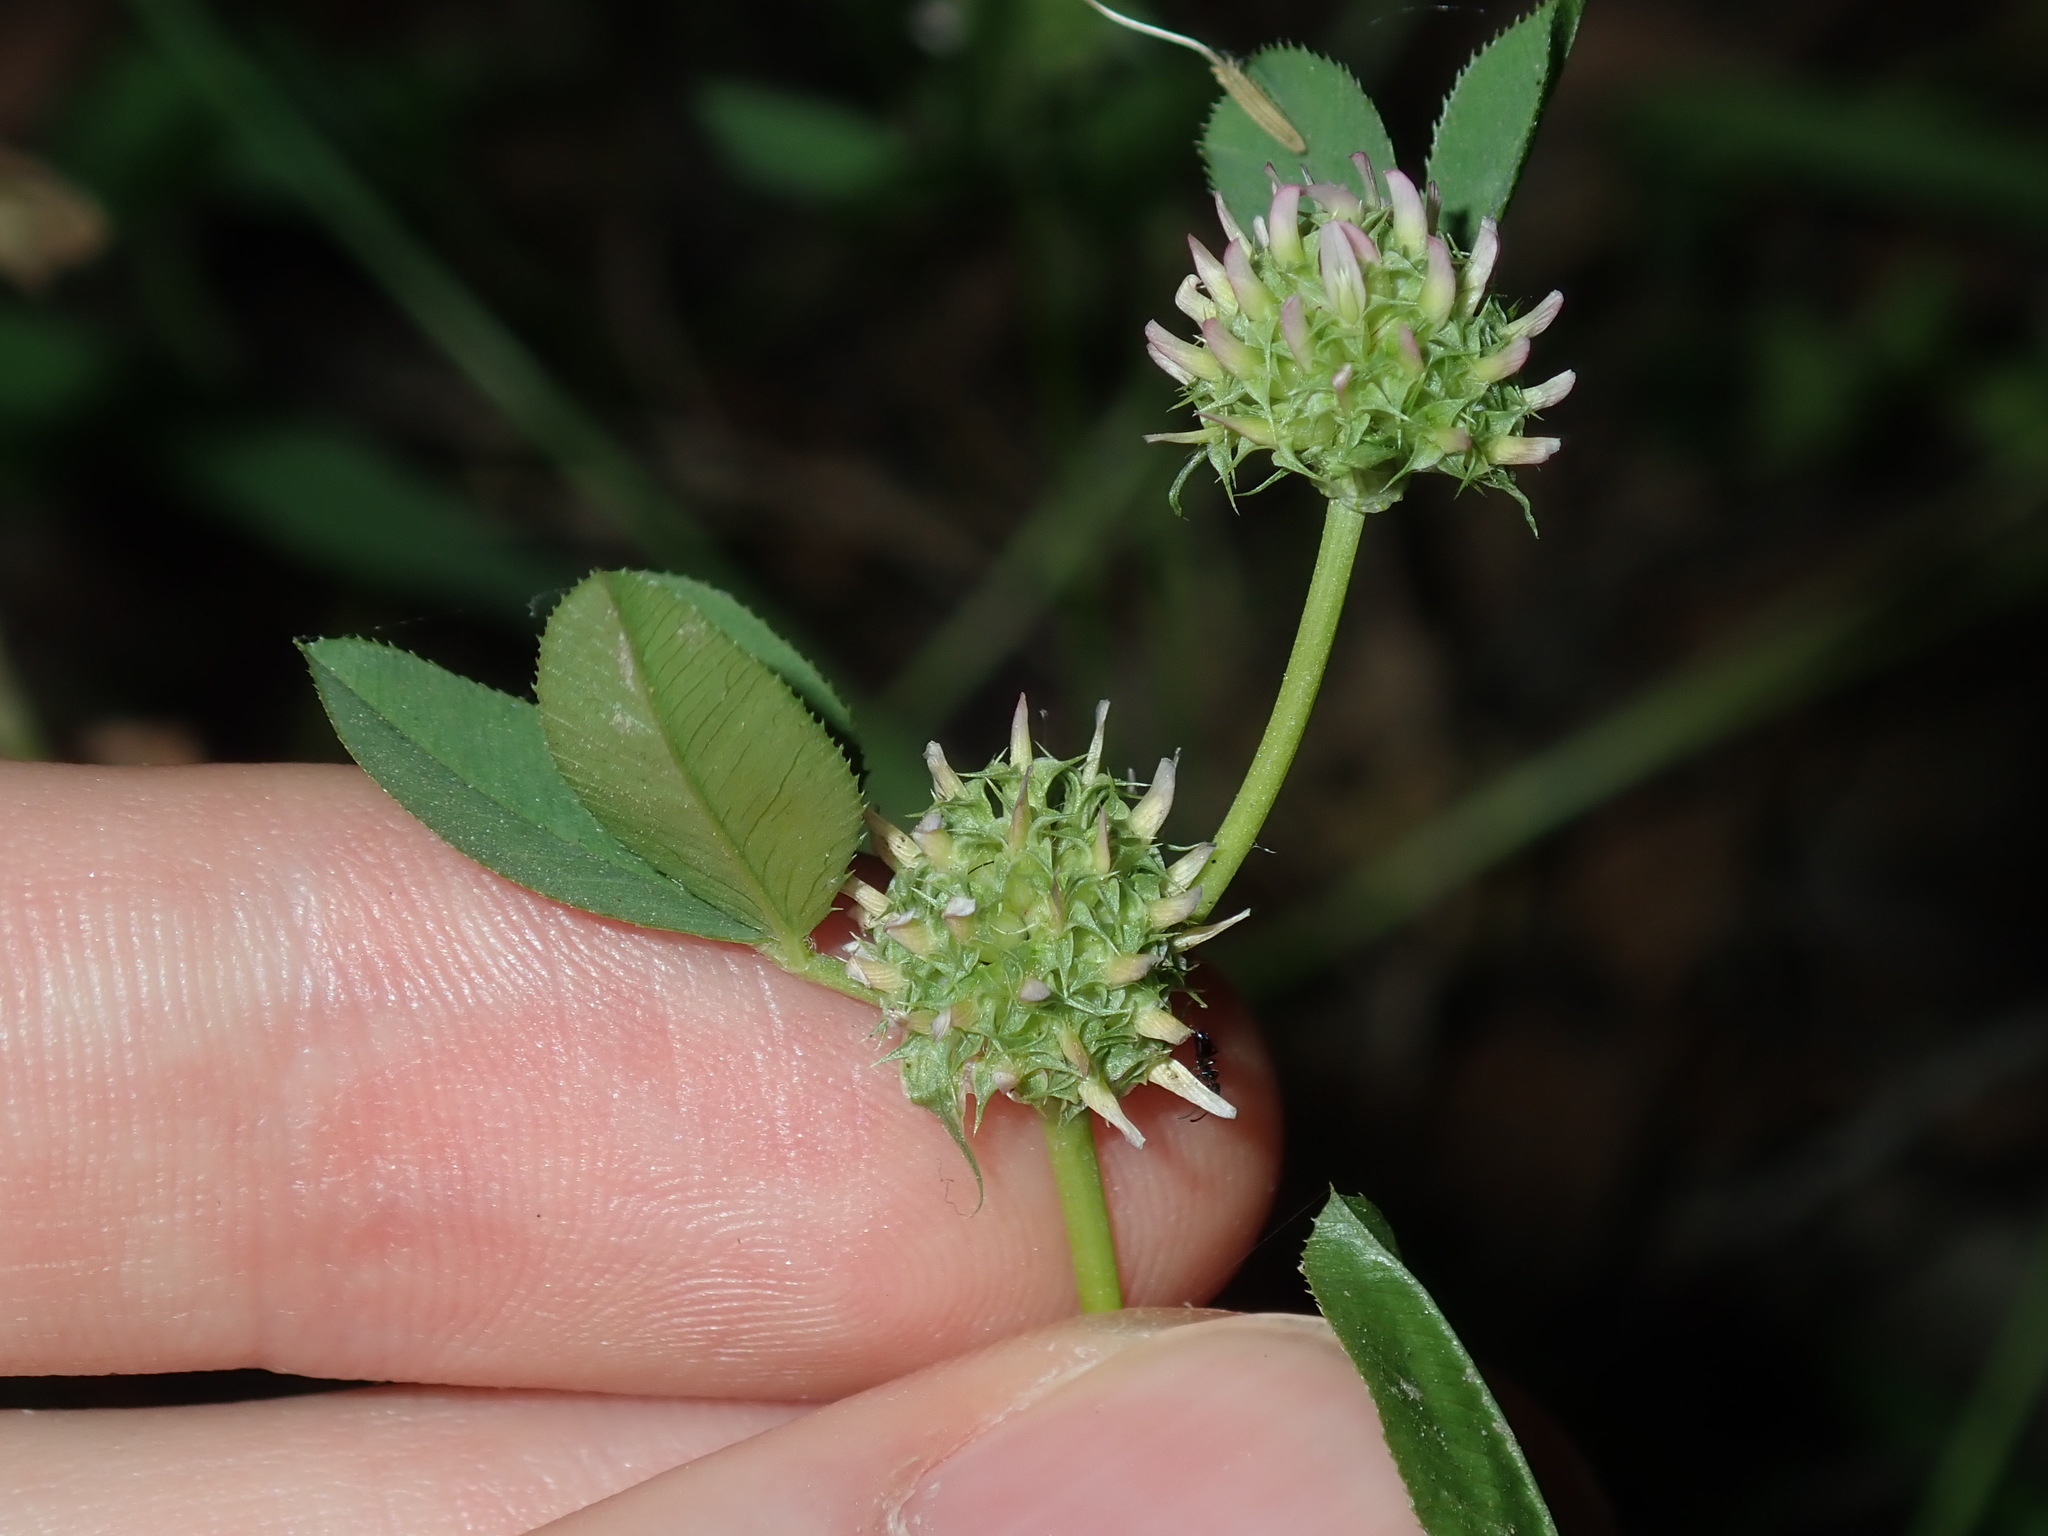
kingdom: Plantae
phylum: Tracheophyta
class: Magnoliopsida
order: Fabales
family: Fabaceae
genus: Trifolium
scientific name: Trifolium glomeratum
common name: Clustered clover
